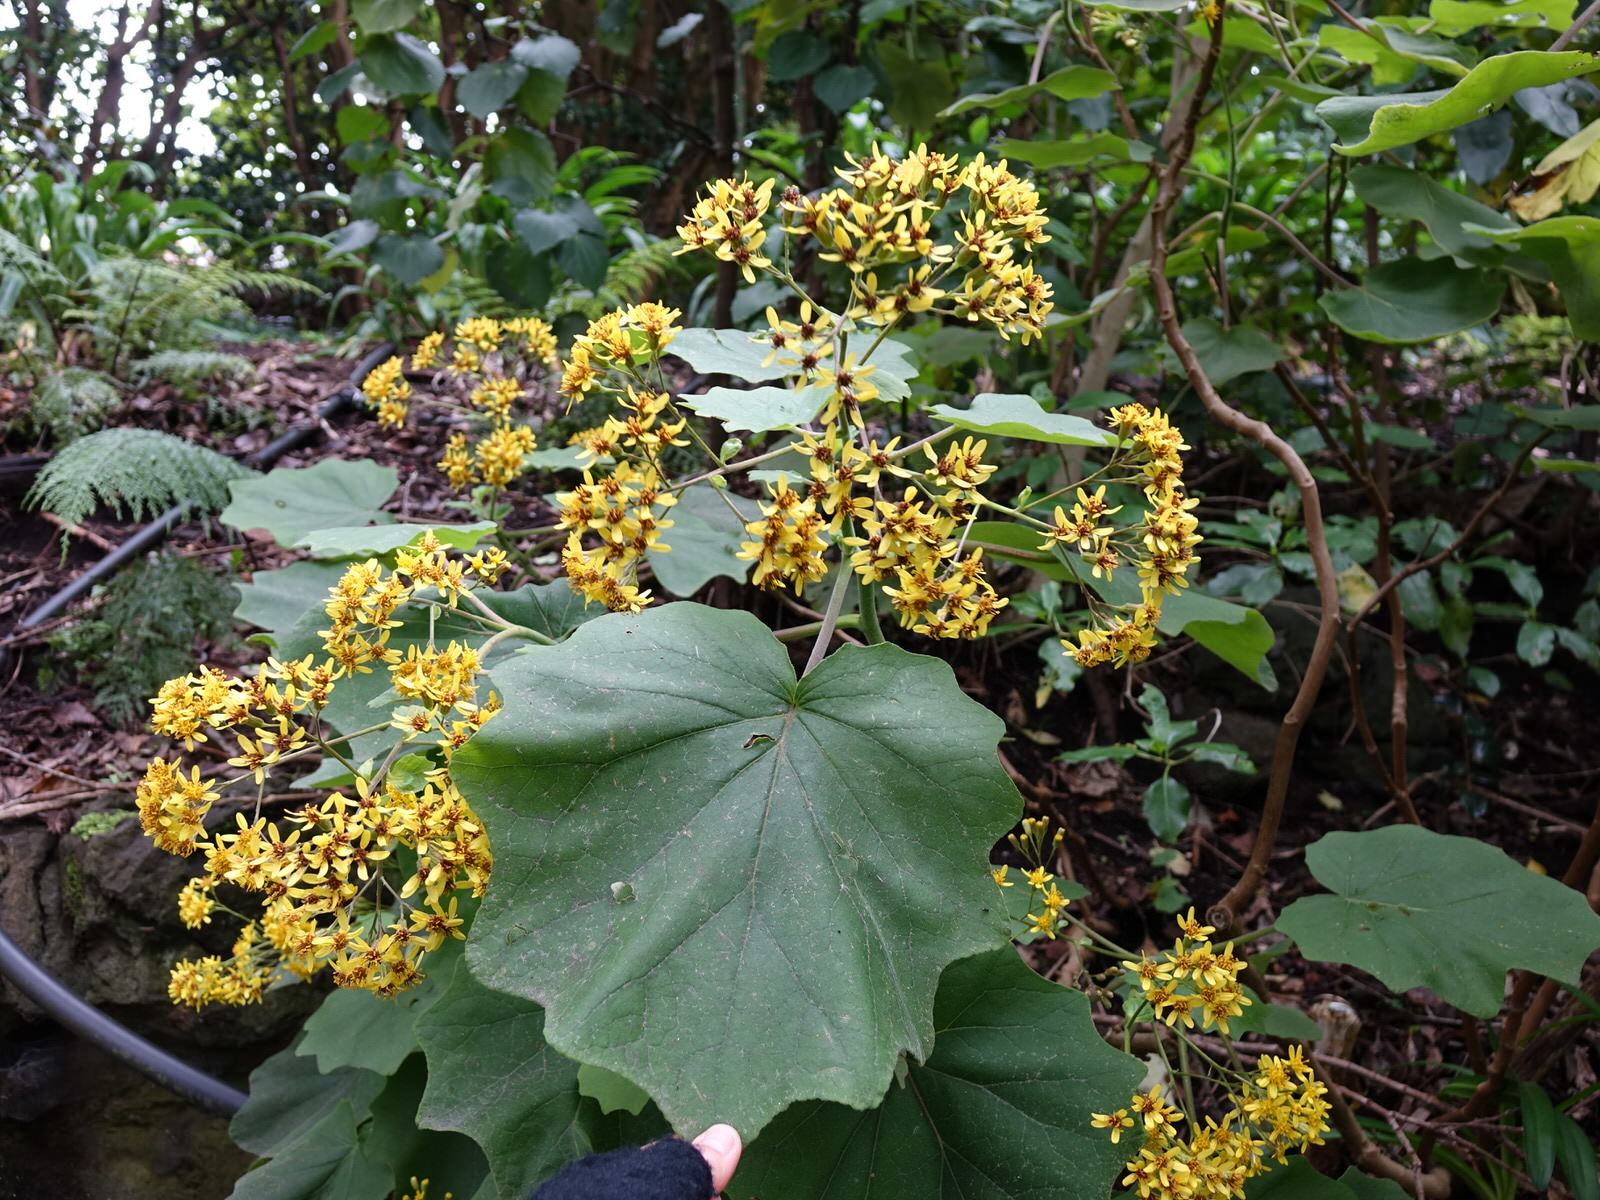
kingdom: Plantae
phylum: Tracheophyta
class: Magnoliopsida
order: Asterales
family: Asteraceae
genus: Roldana
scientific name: Roldana petasitis
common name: California-geranium
